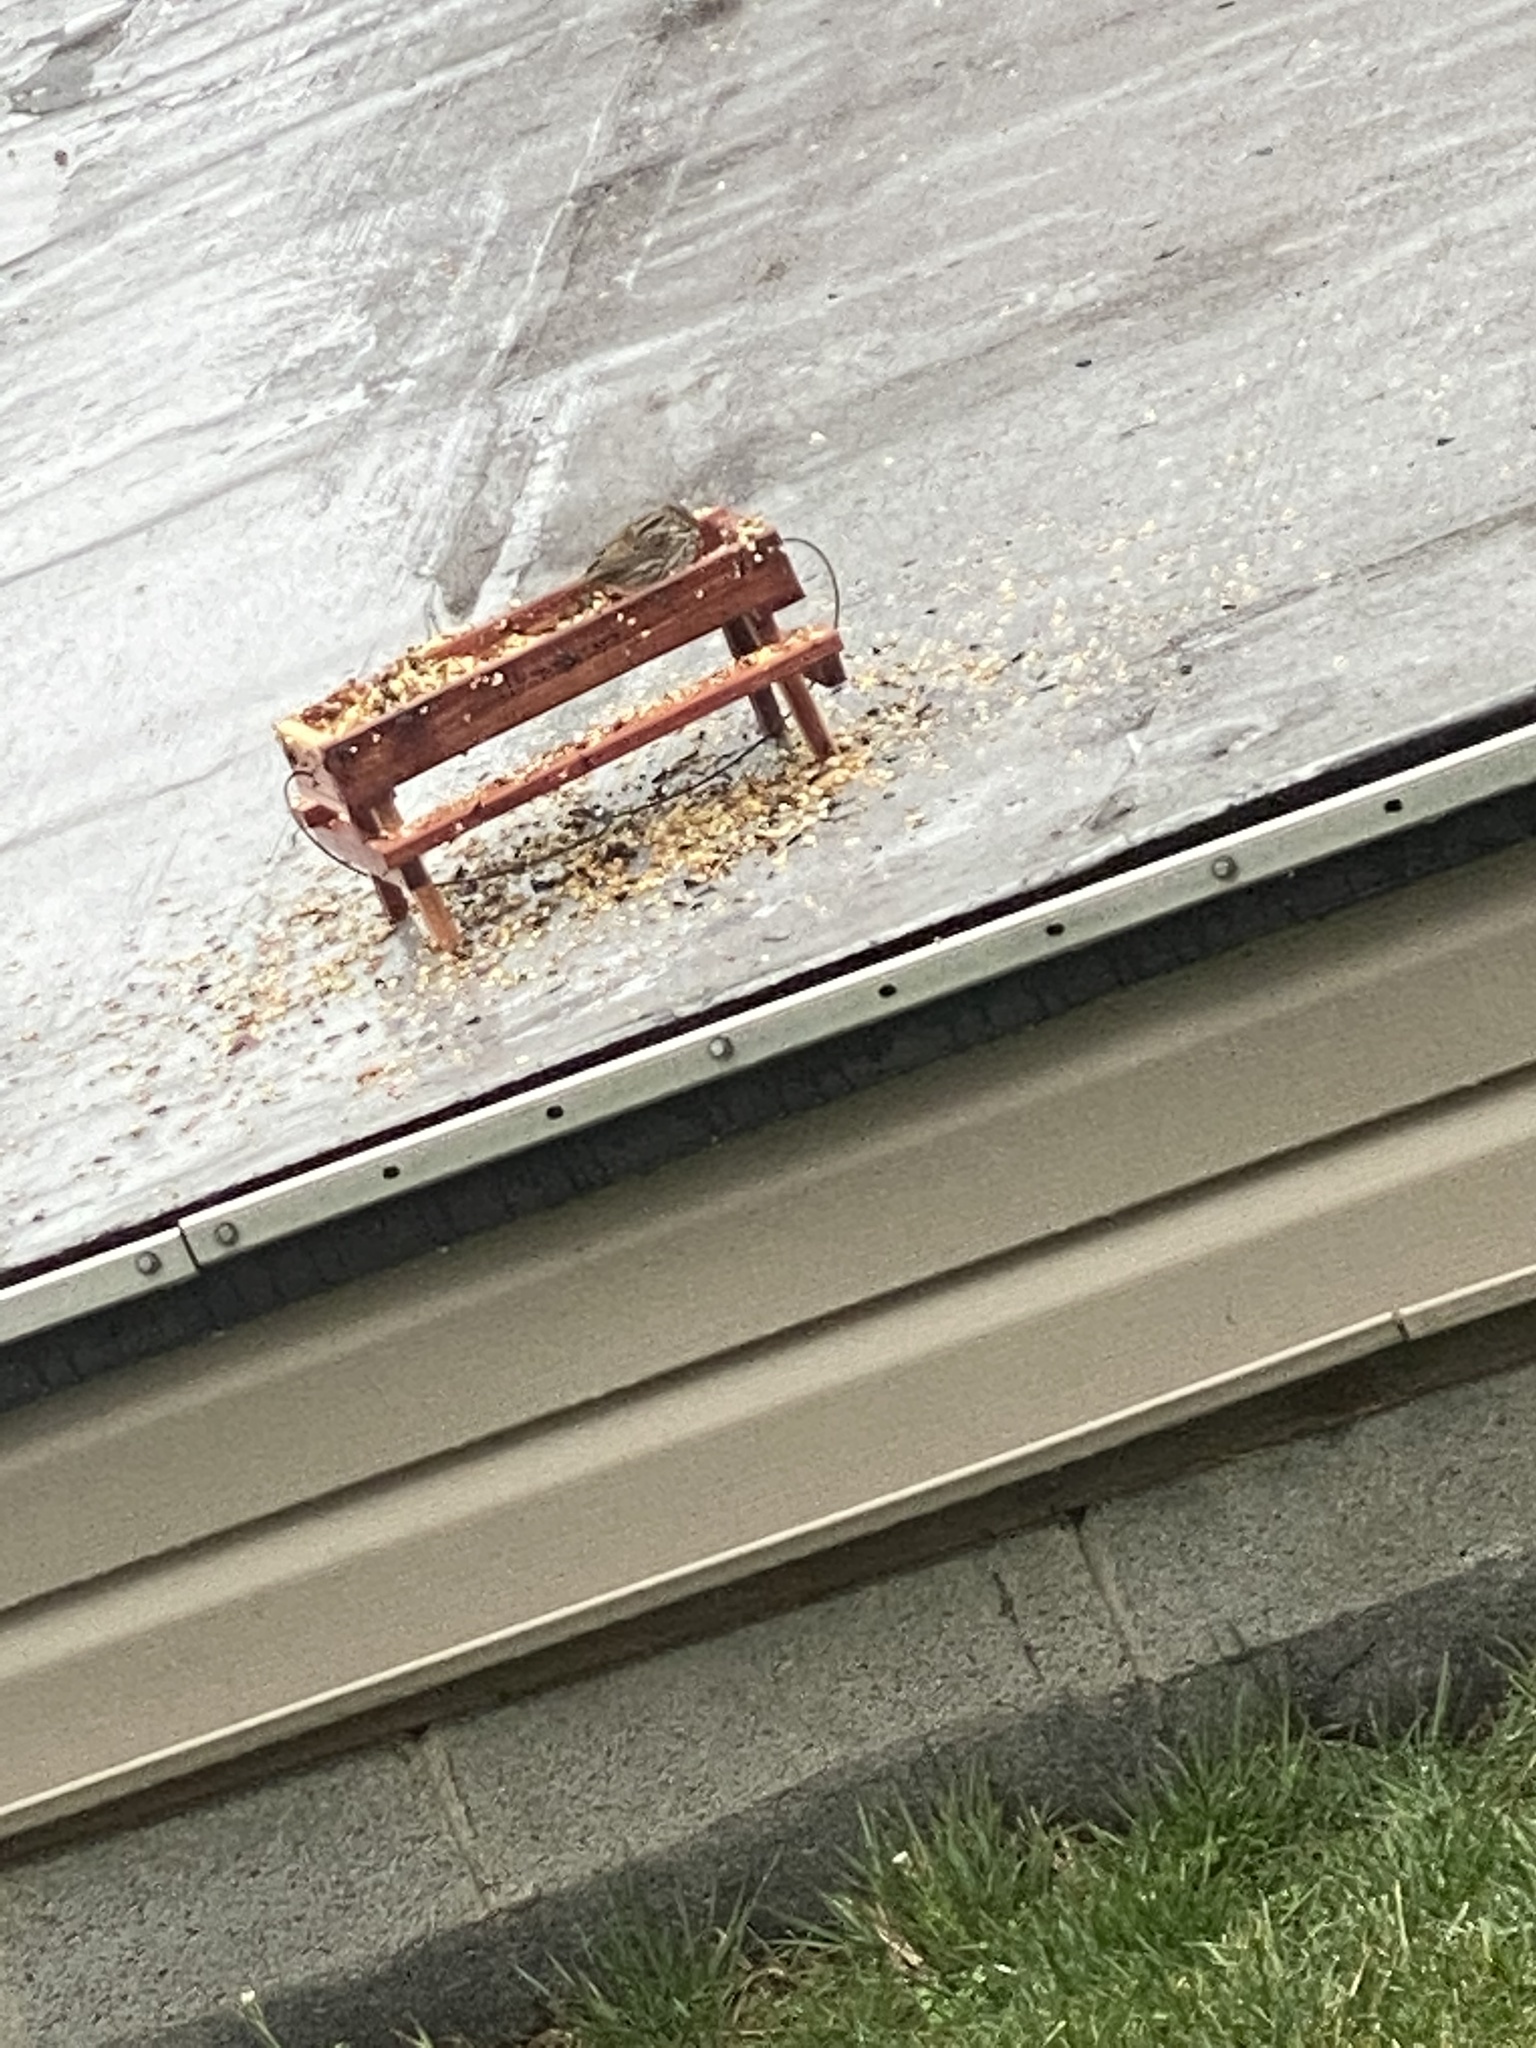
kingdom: Animalia
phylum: Chordata
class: Aves
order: Passeriformes
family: Passerellidae
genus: Melospiza
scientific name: Melospiza melodia
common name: Song sparrow
